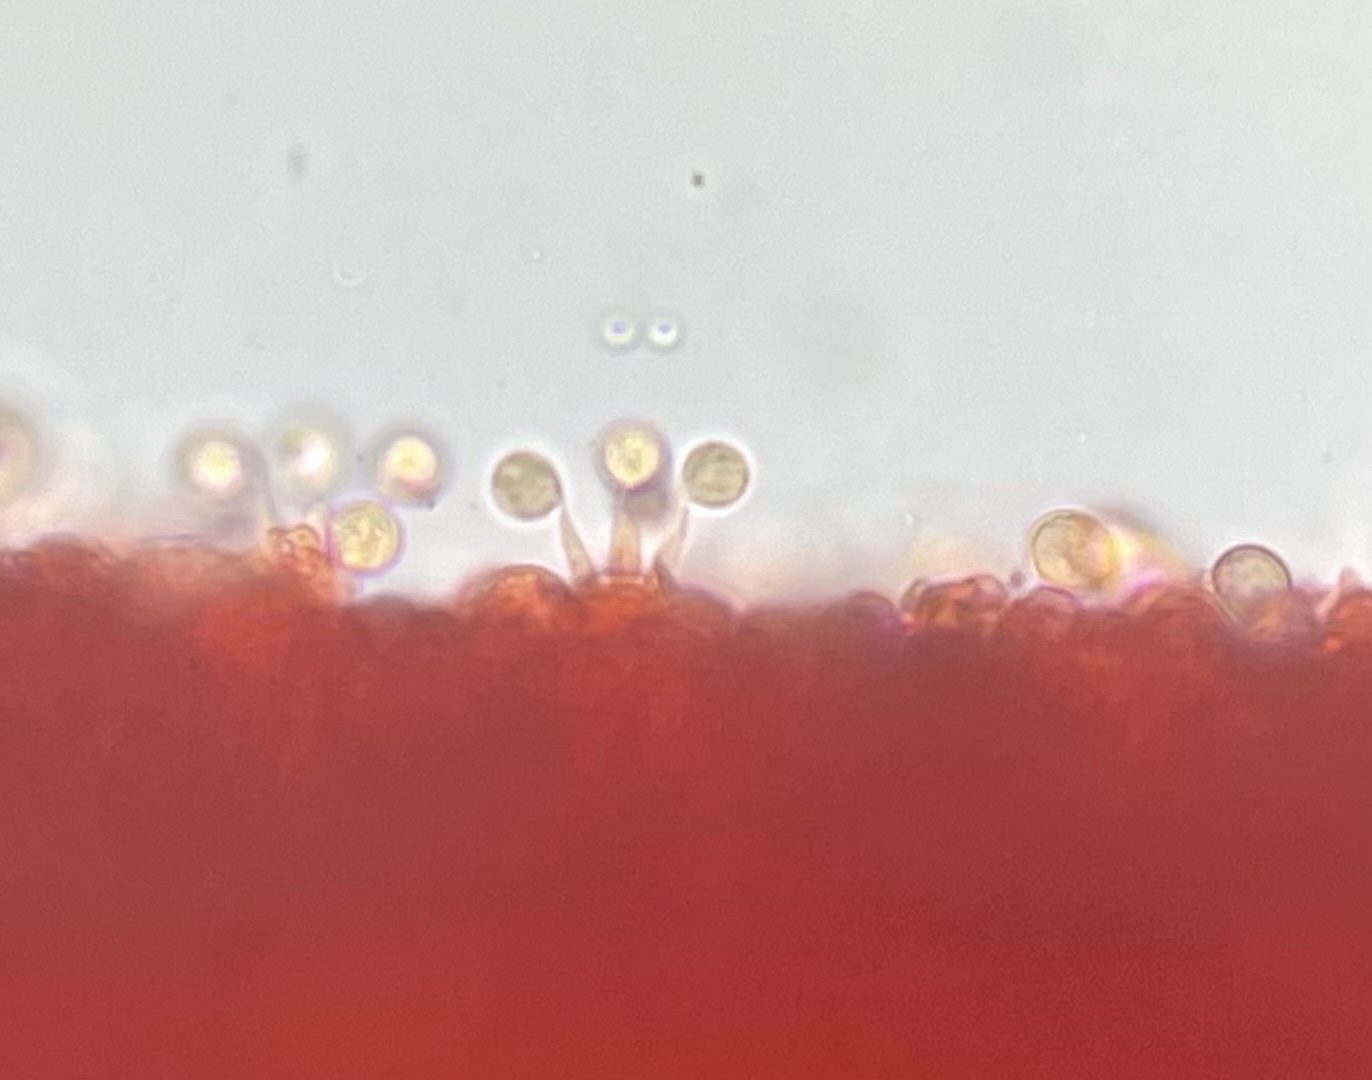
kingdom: Fungi
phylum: Basidiomycota
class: Agaricomycetes
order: Agaricales
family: Mycenaceae
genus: Mycena
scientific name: Mycena meliigena
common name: Mauve bonnet
